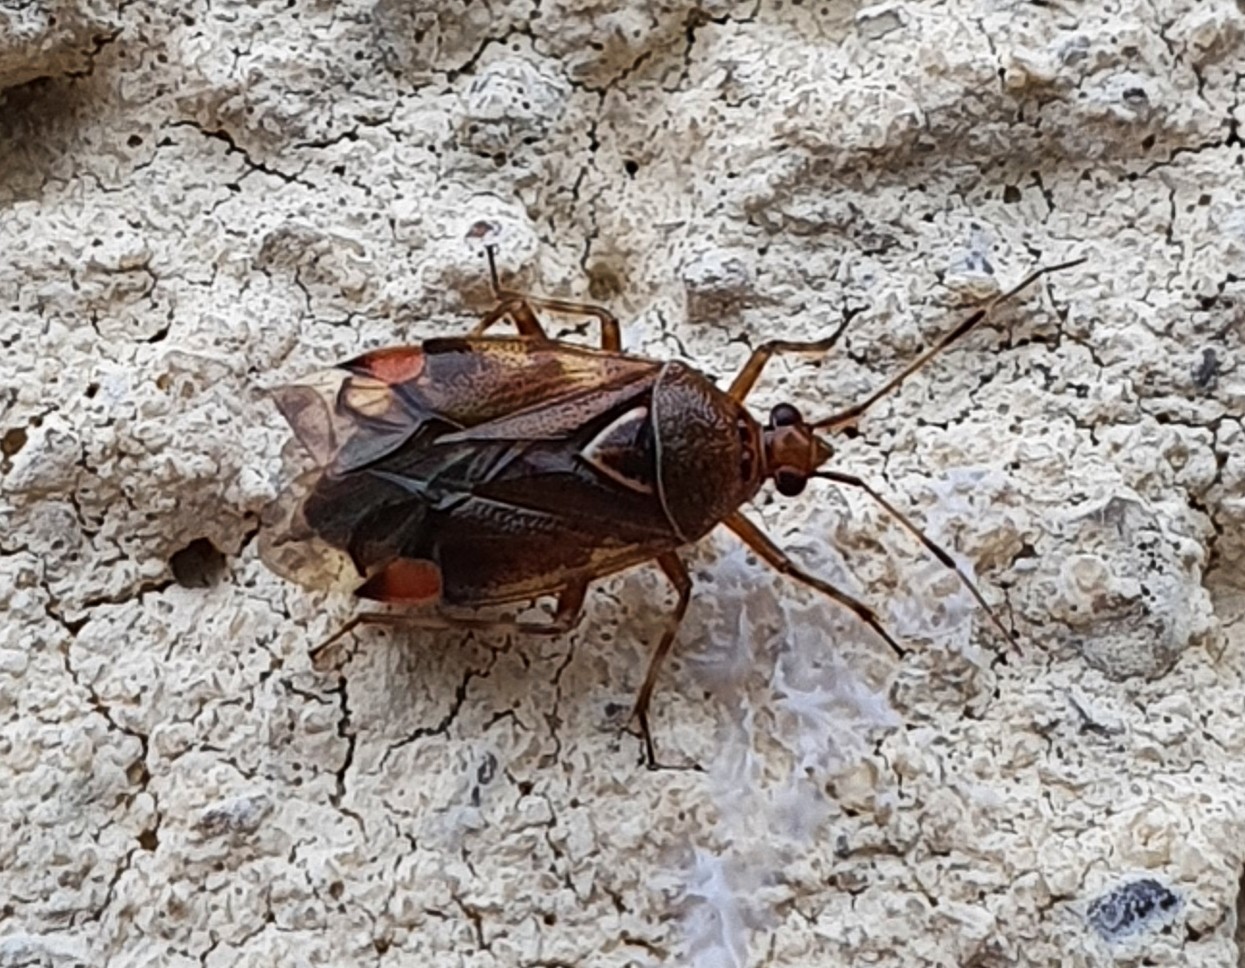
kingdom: Animalia
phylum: Arthropoda
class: Insecta
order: Hemiptera
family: Miridae
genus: Deraeocoris
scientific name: Deraeocoris flavilinea
